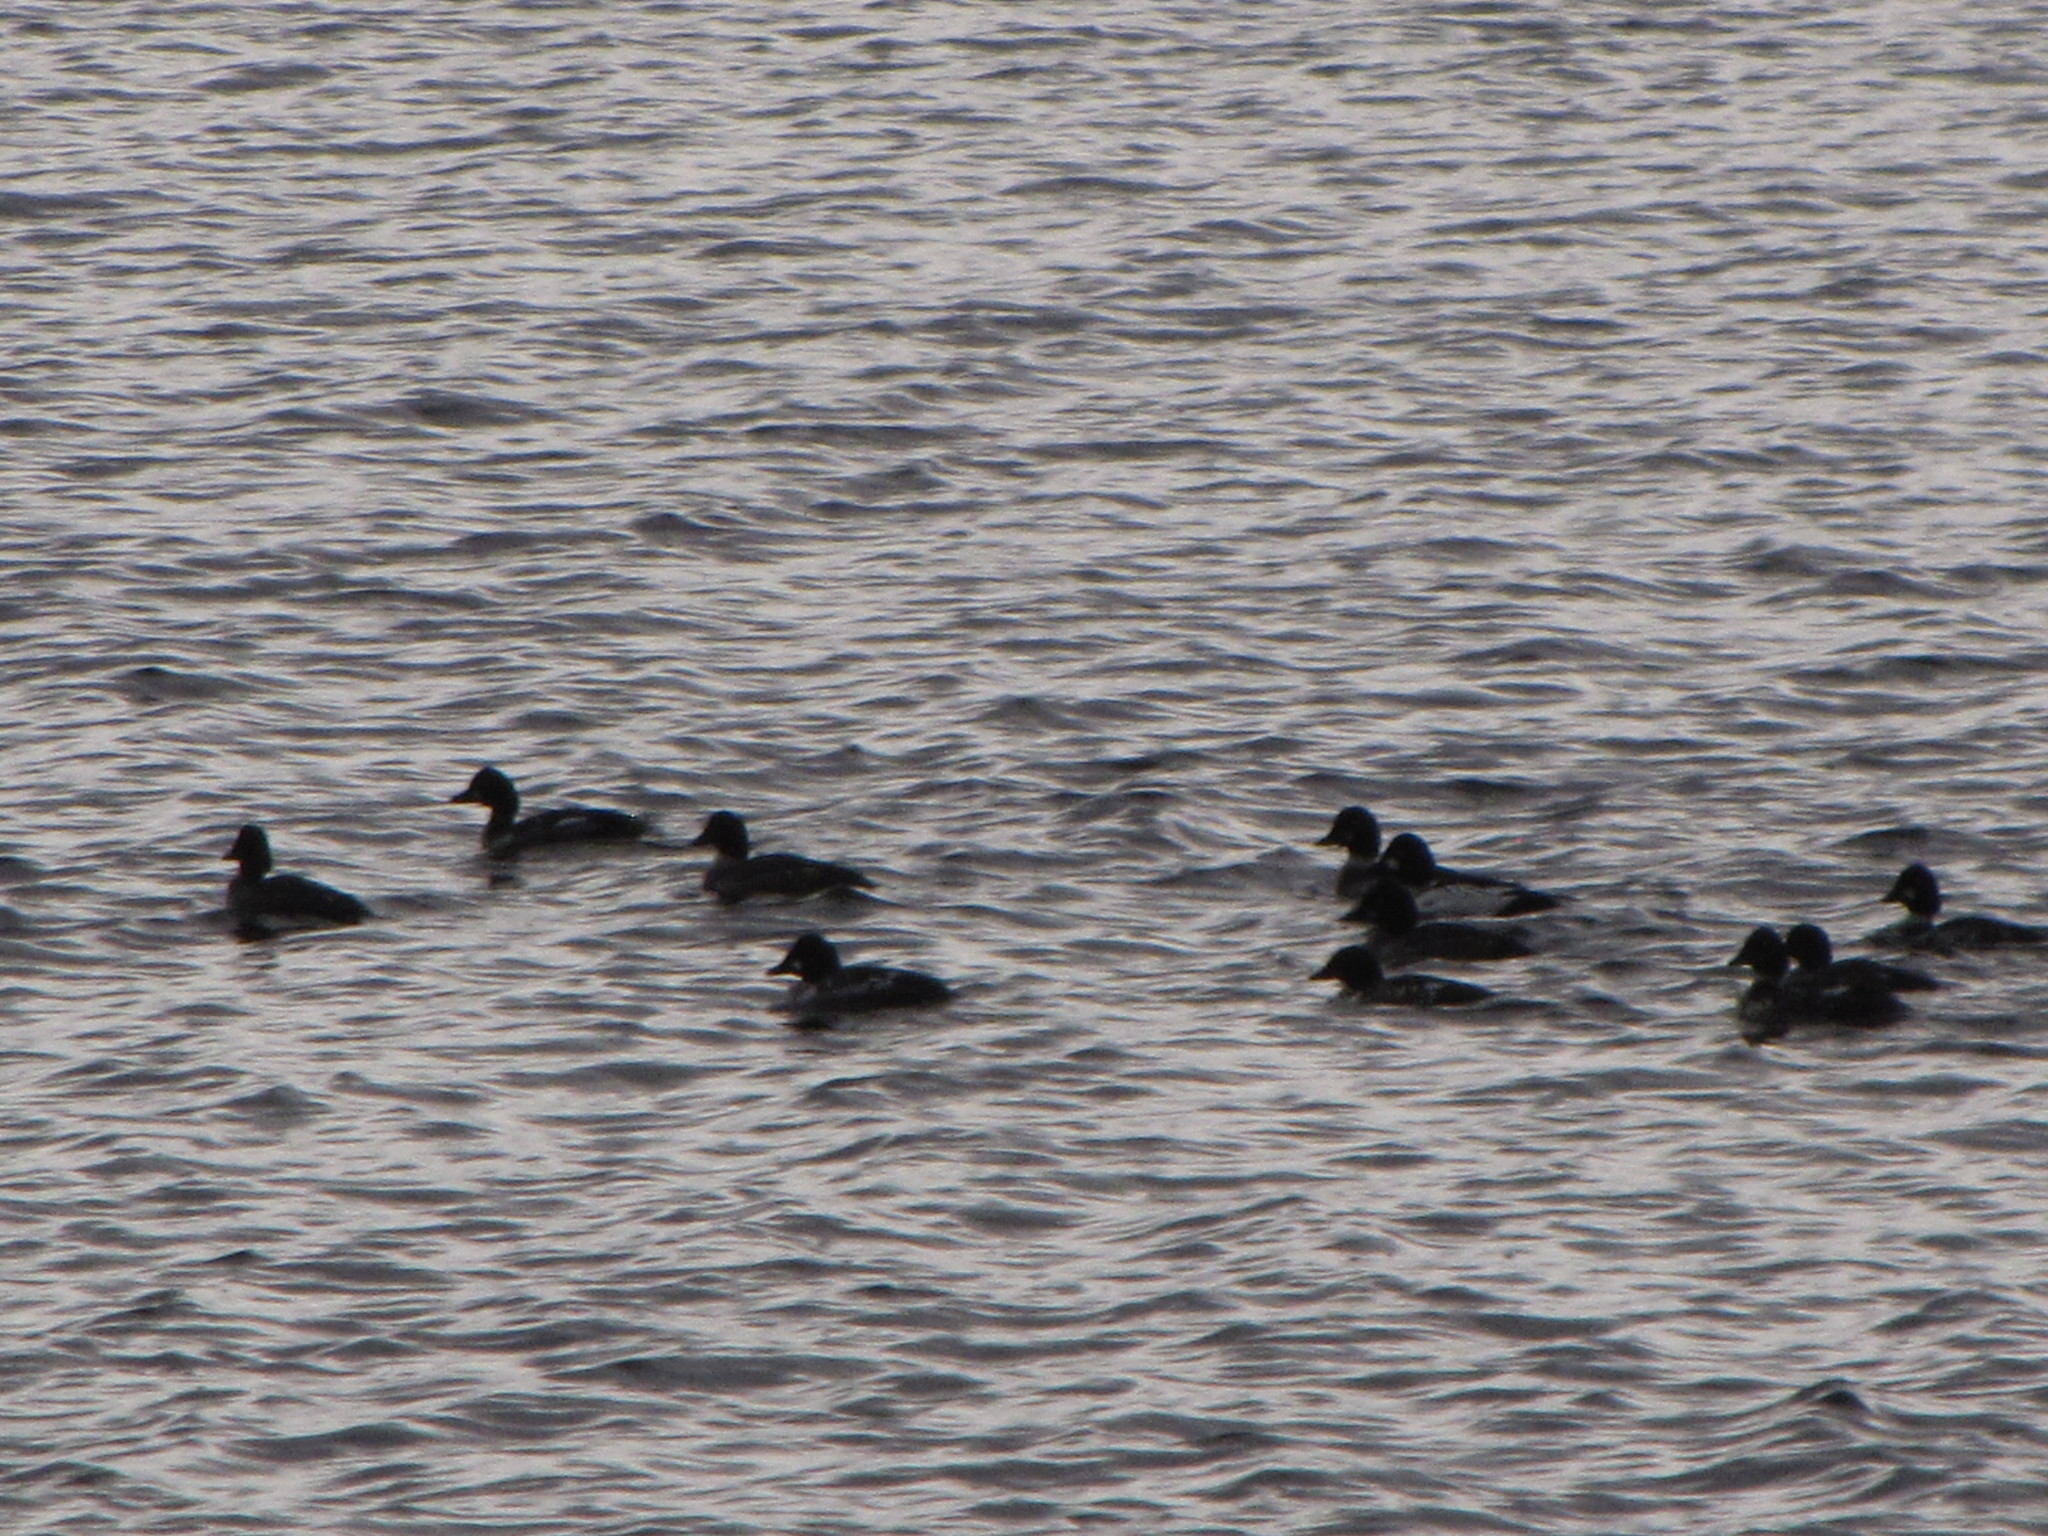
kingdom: Animalia
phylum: Chordata
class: Aves
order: Anseriformes
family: Anatidae
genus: Bucephala
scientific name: Bucephala clangula
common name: Common goldeneye
